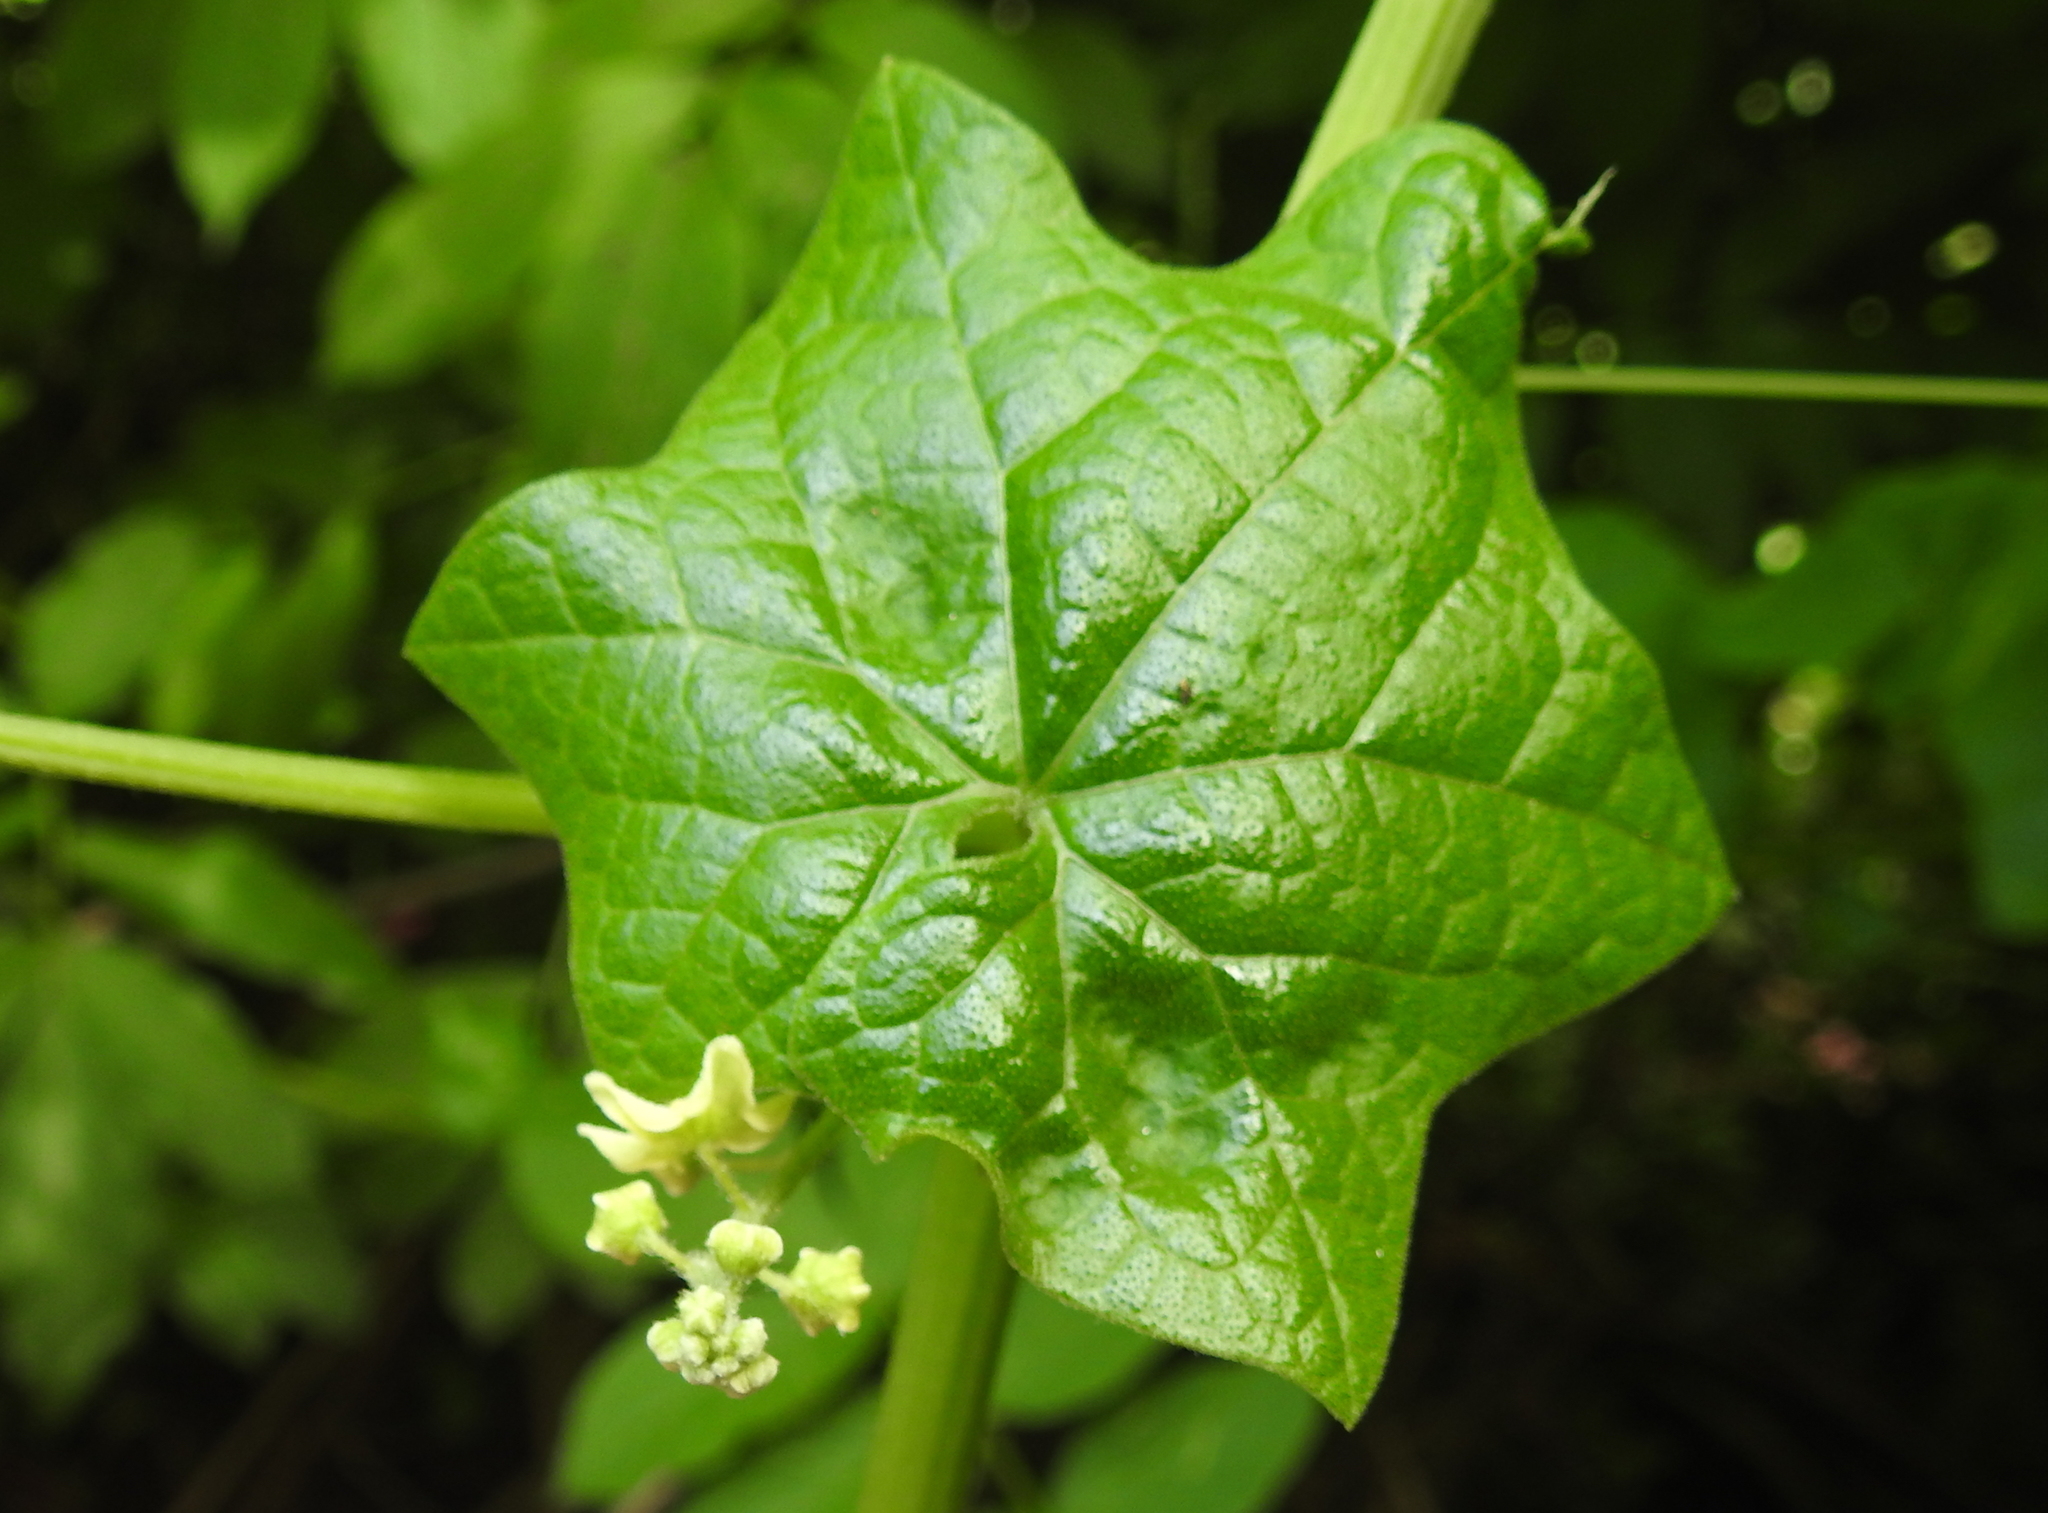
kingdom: Plantae
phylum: Tracheophyta
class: Magnoliopsida
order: Cucurbitales
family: Cucurbitaceae
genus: Marah
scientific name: Marah fabacea
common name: California manroot
